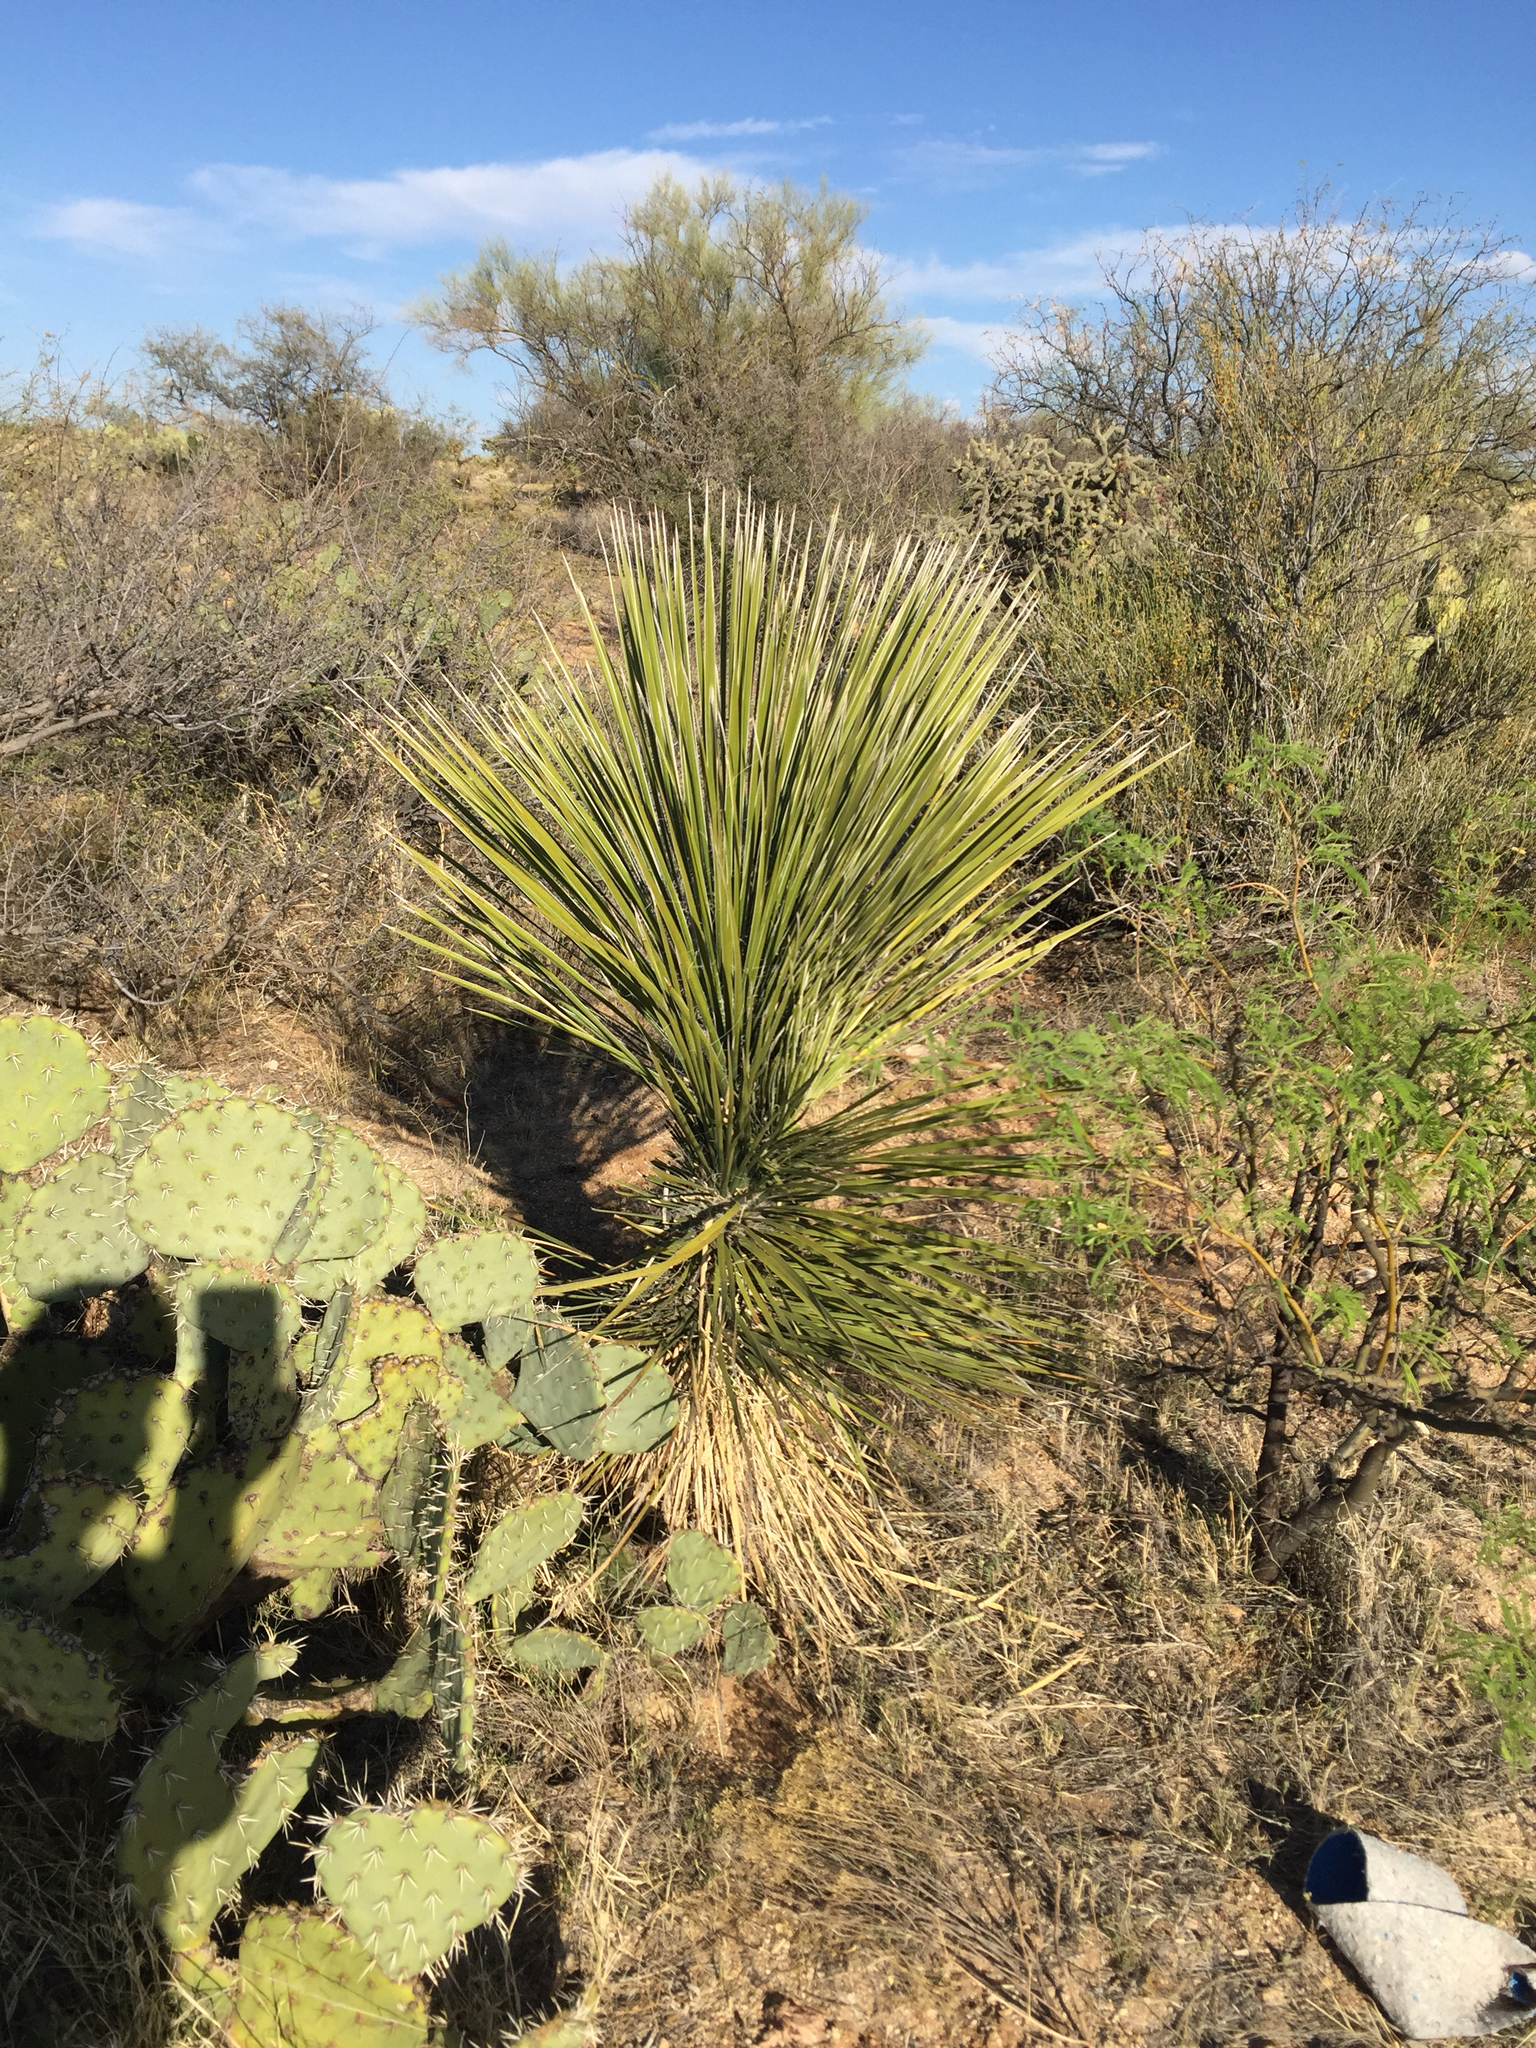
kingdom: Plantae
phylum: Tracheophyta
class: Liliopsida
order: Asparagales
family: Asparagaceae
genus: Yucca
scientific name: Yucca elata
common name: Palmella
